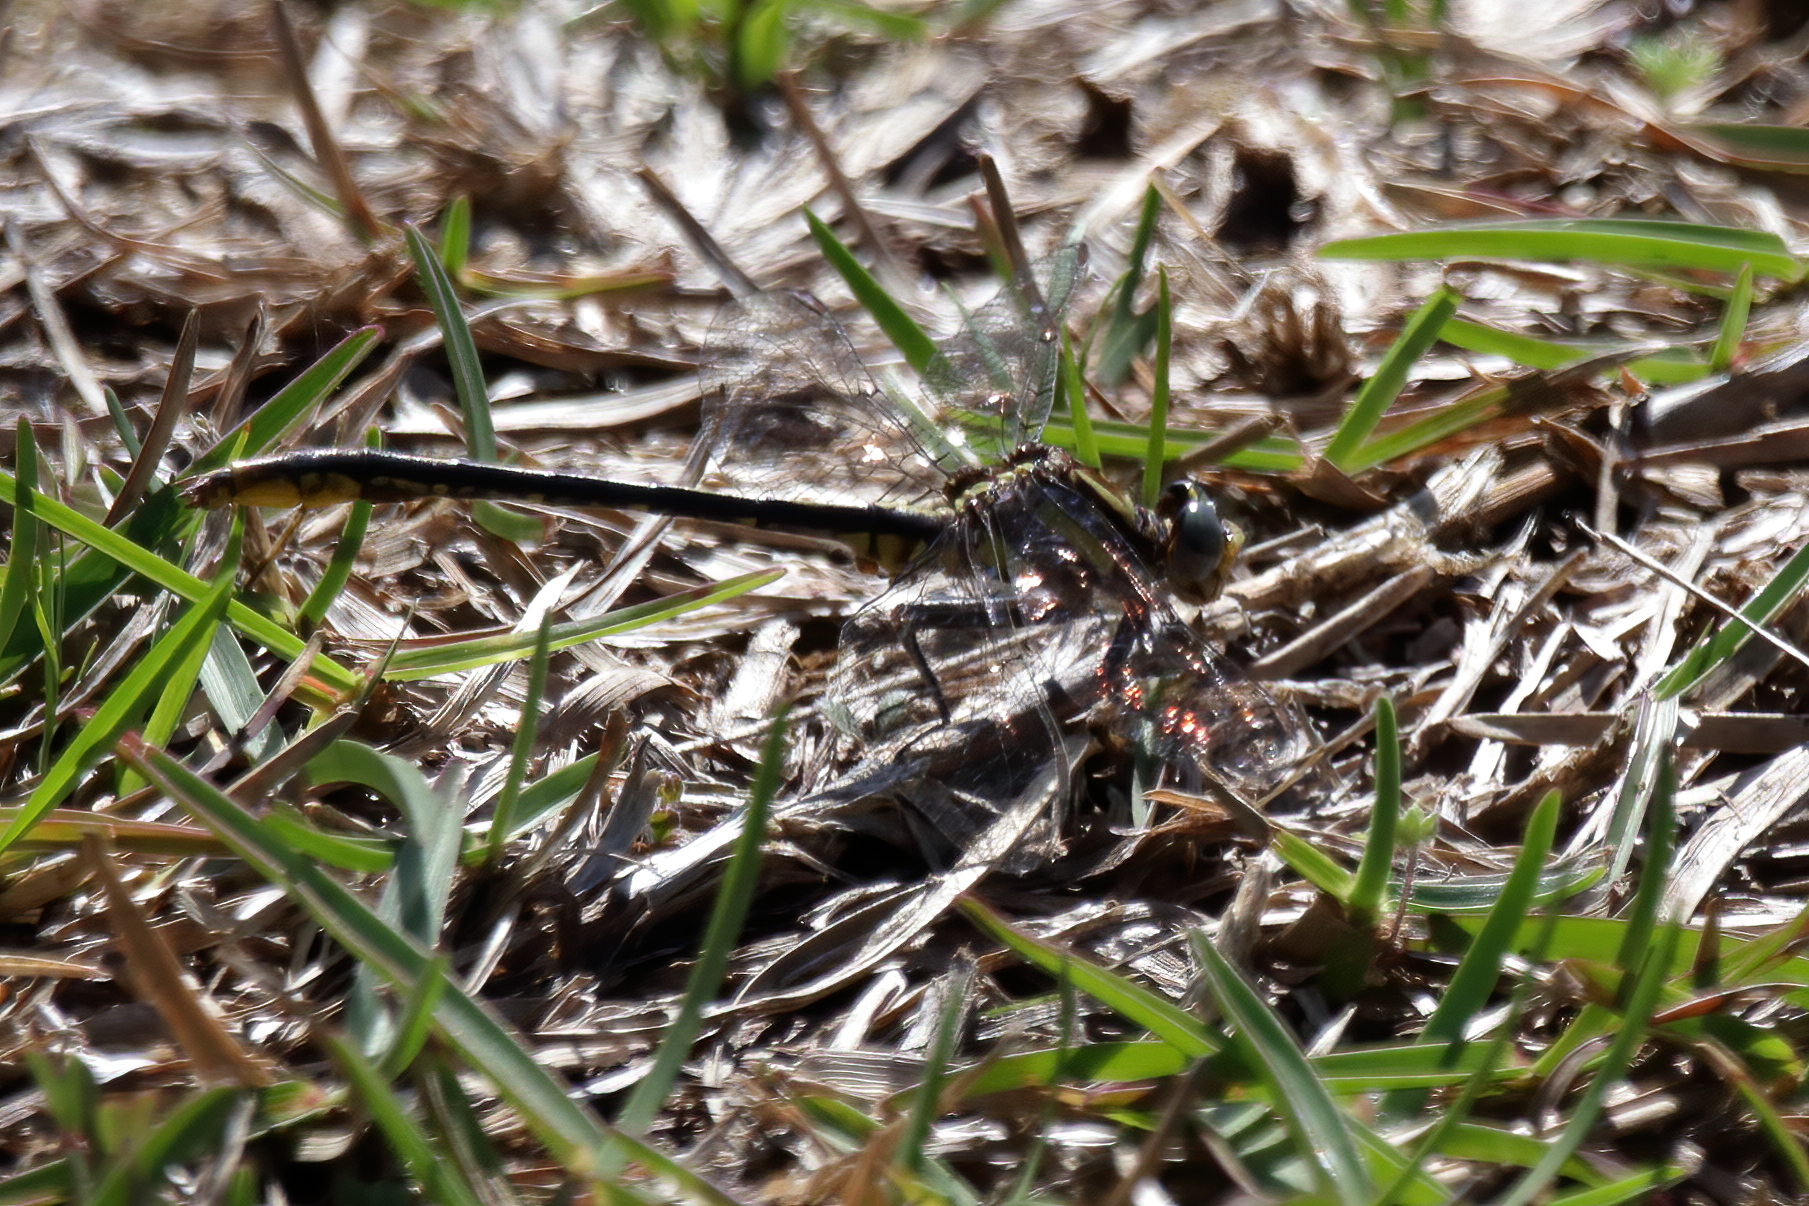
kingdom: Animalia
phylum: Arthropoda
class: Insecta
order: Odonata
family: Gomphidae
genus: Phanogomphus
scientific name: Phanogomphus exilis
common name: Lancet clubtail
